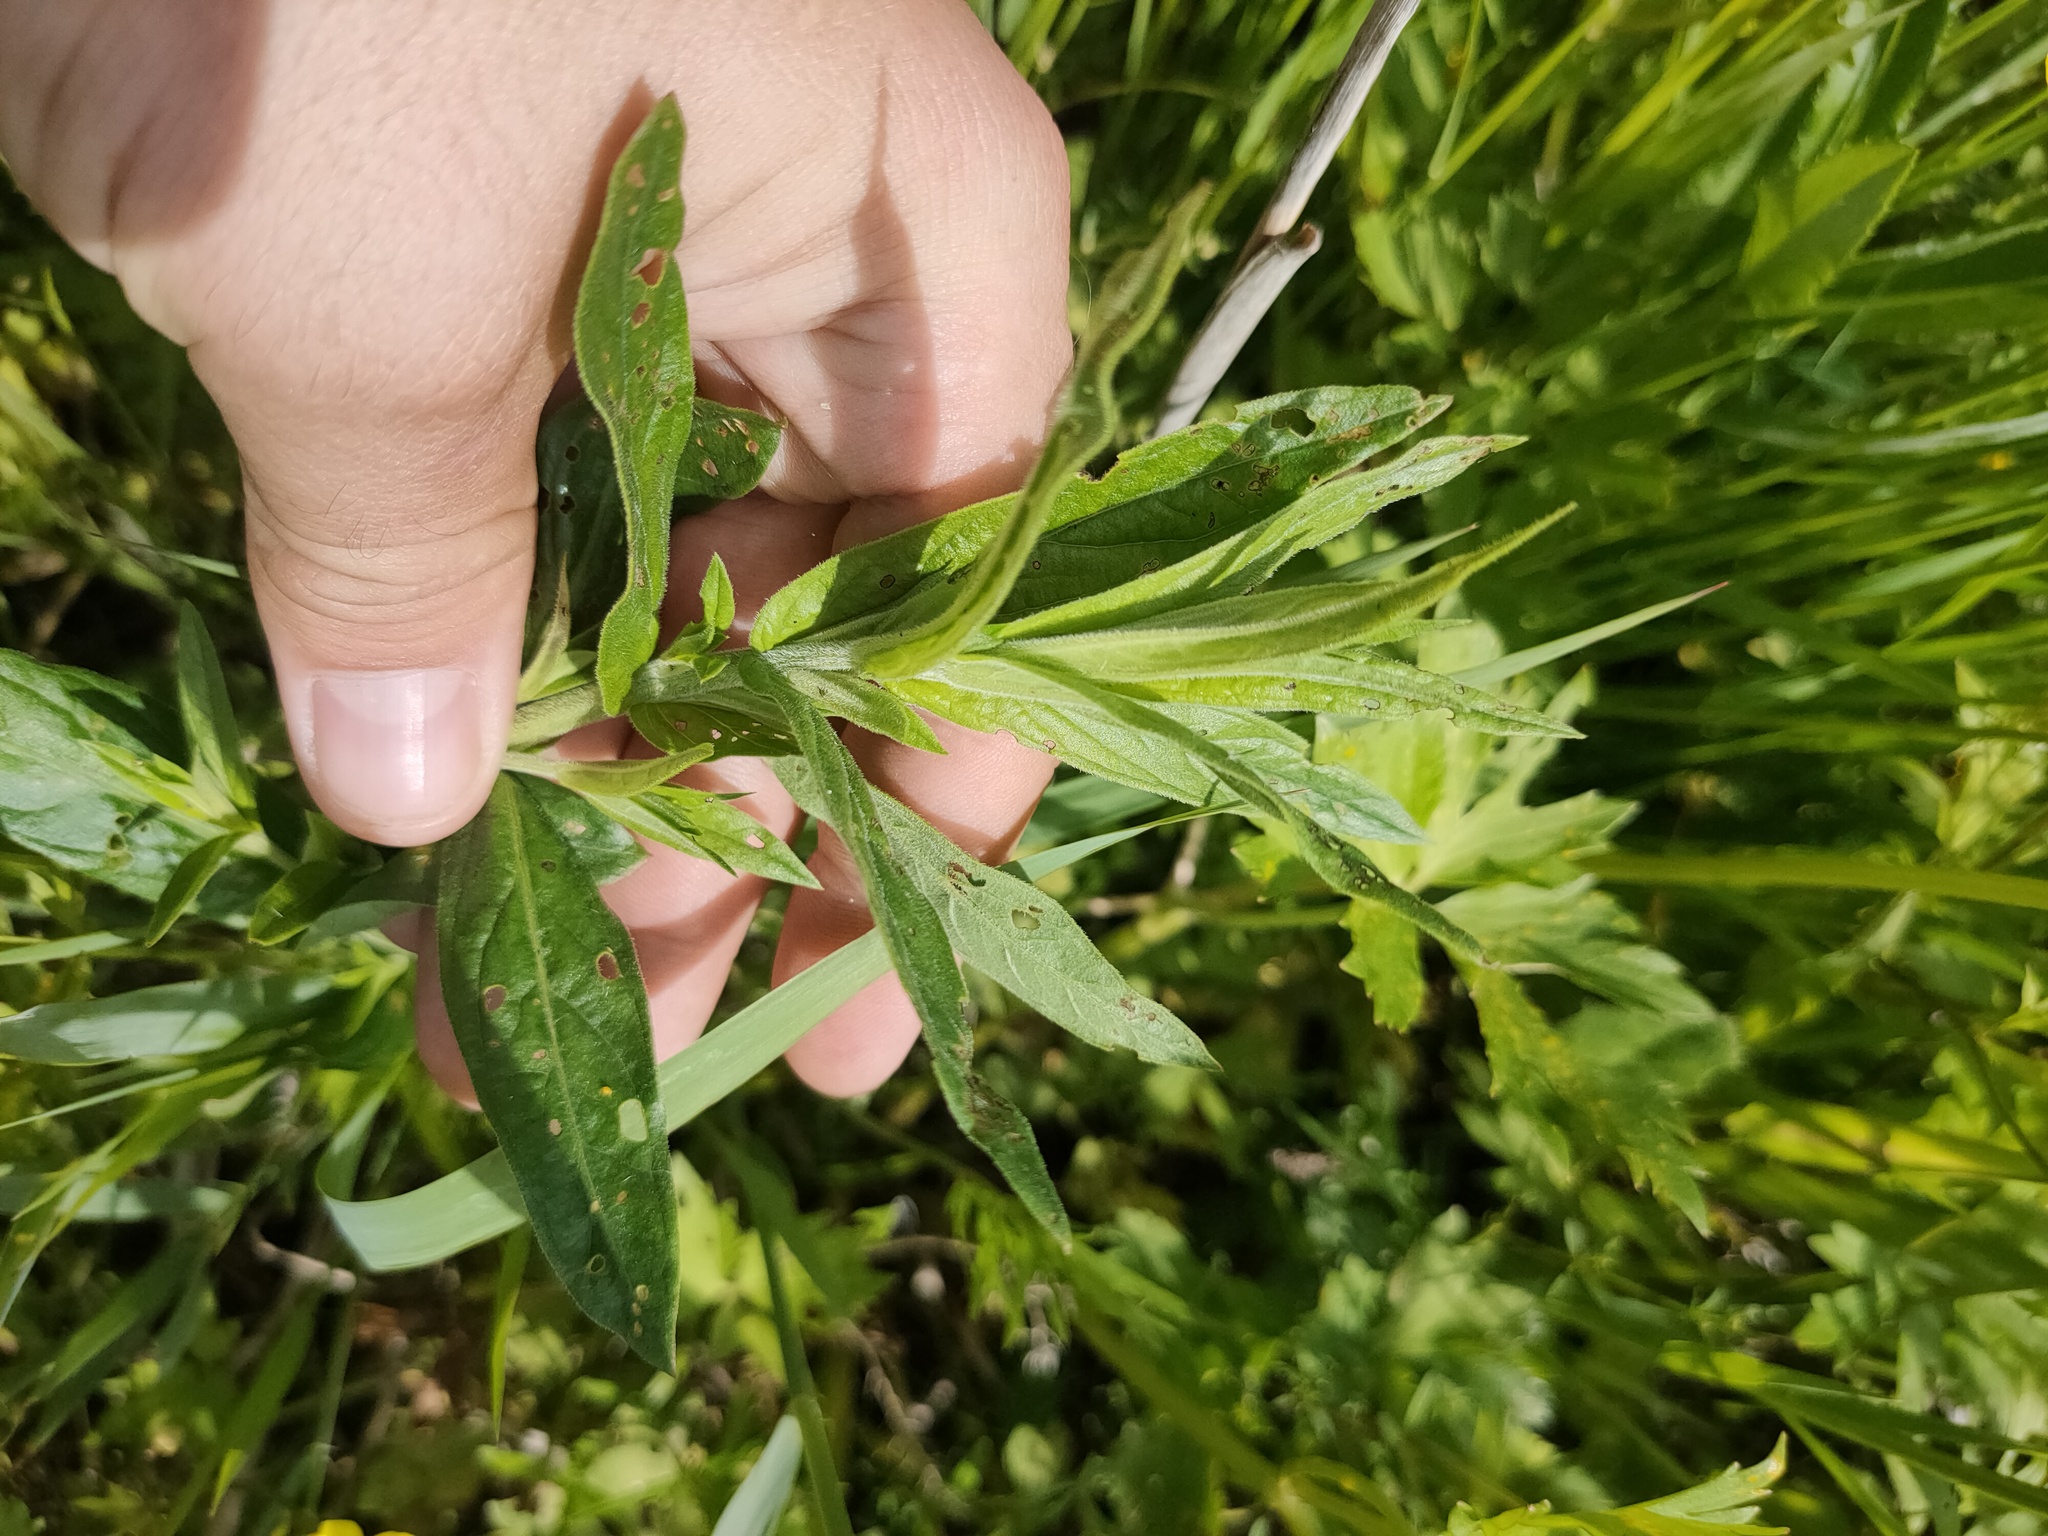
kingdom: Plantae
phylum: Tracheophyta
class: Magnoliopsida
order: Myrtales
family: Lythraceae
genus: Lythrum
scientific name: Lythrum salicaria
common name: Purple loosestrife
